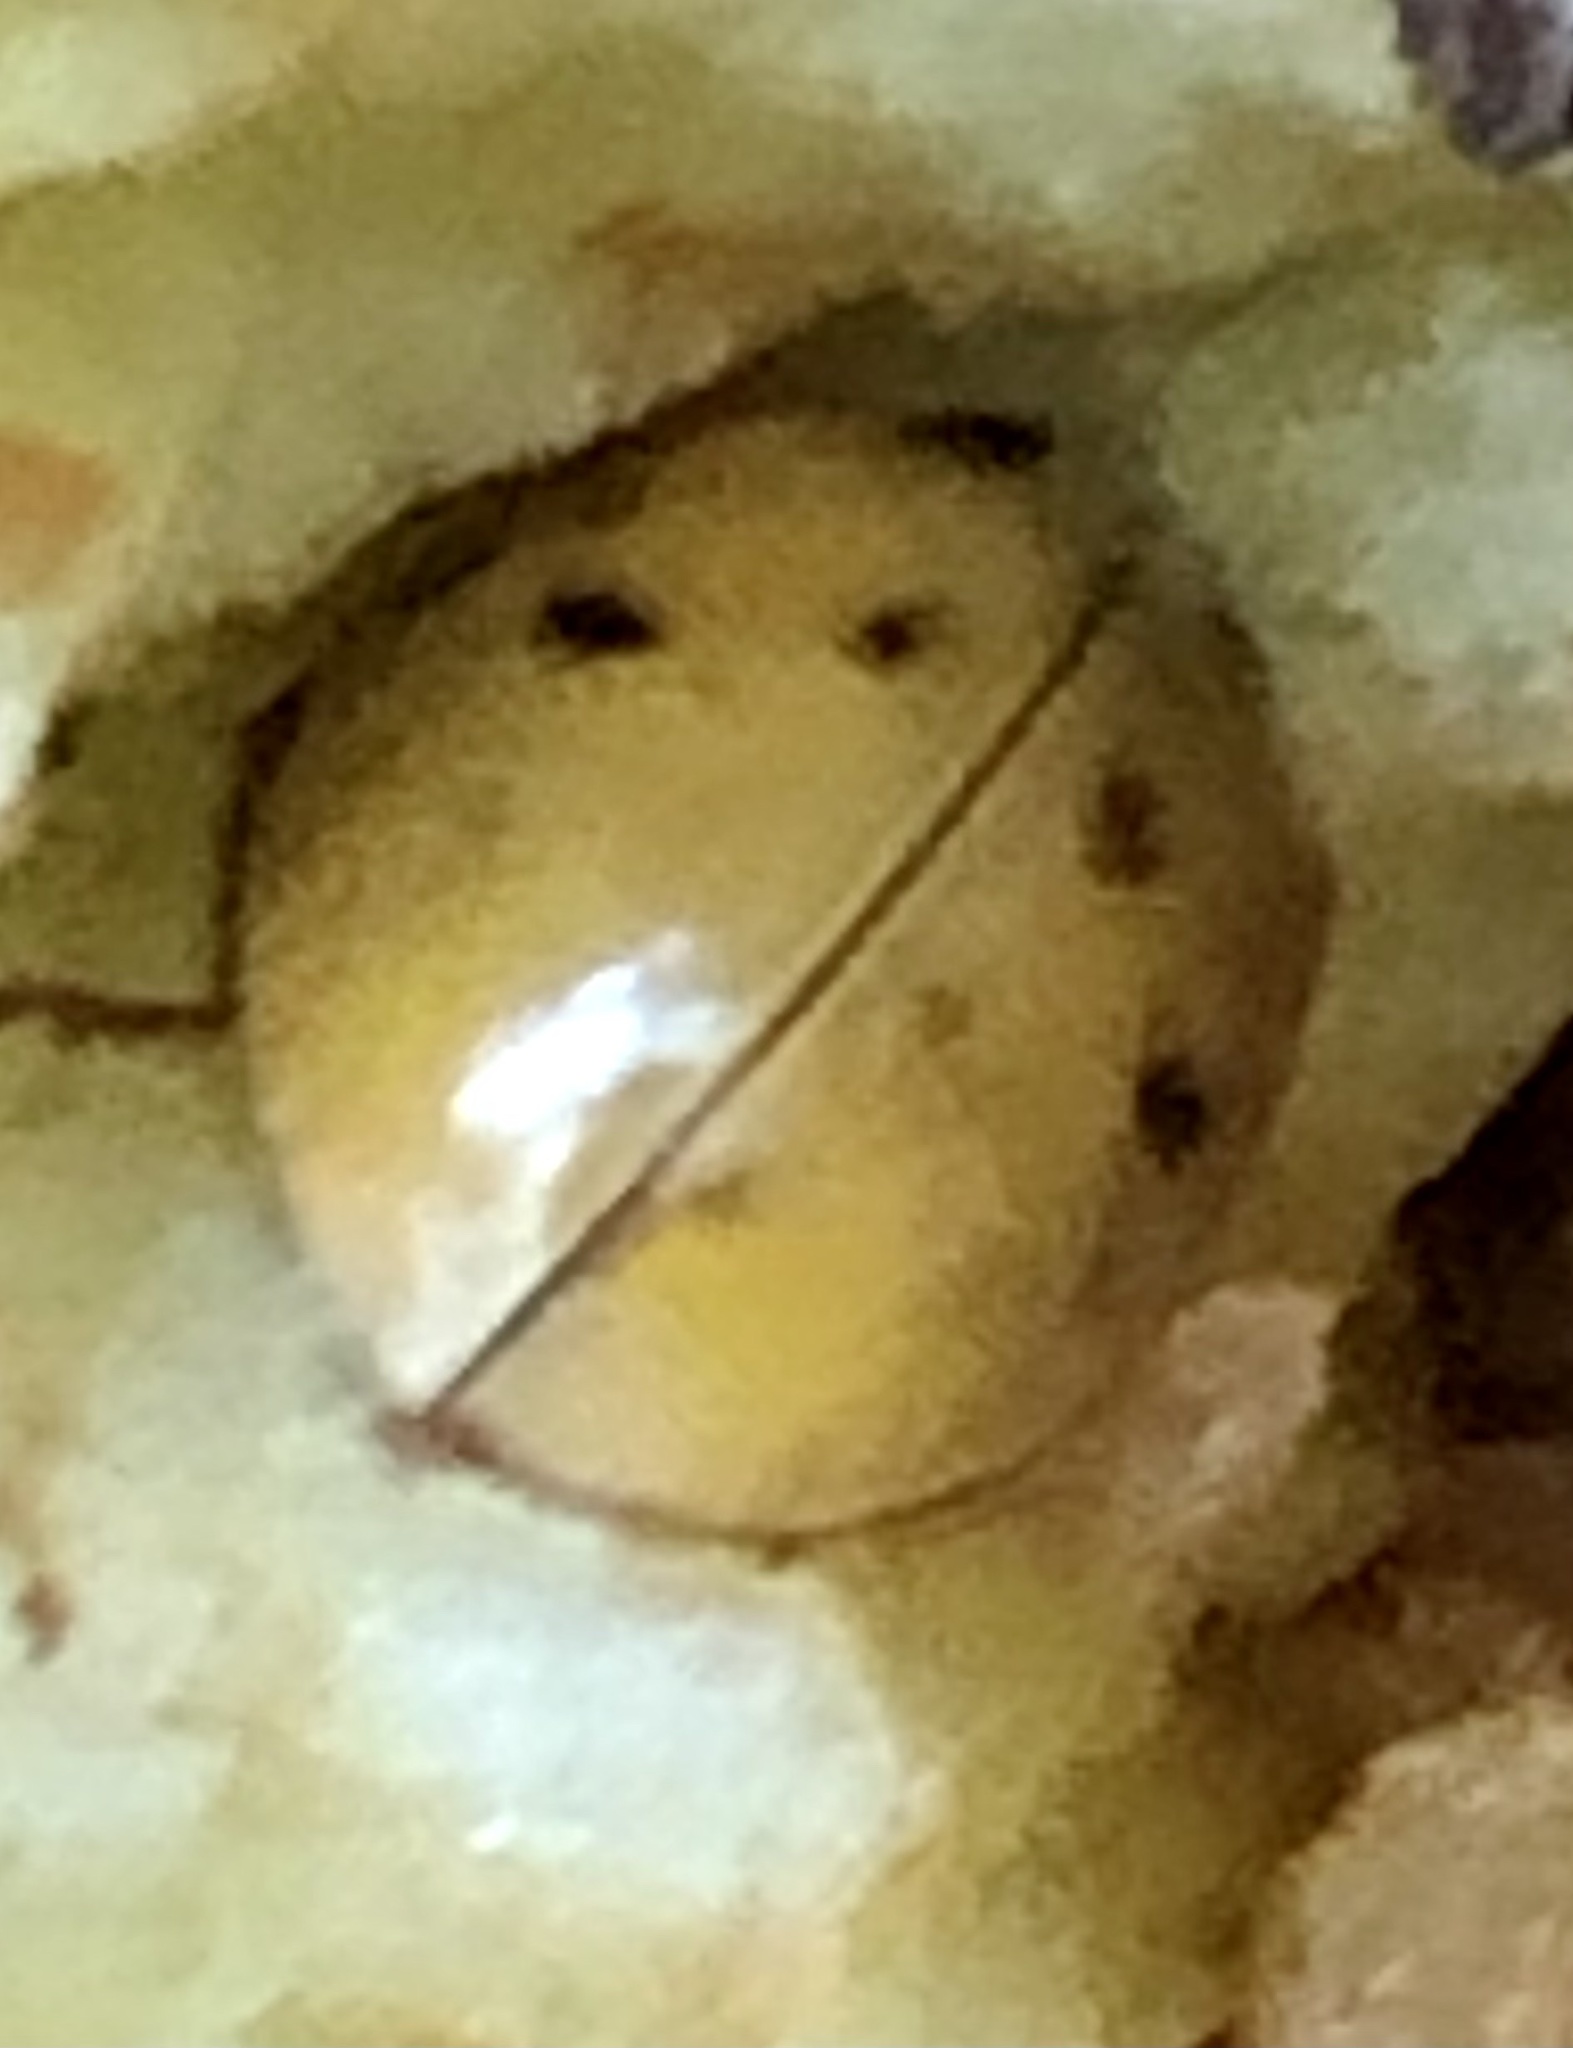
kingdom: Animalia
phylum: Arthropoda
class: Insecta
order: Coleoptera
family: Coccinellidae
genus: Harmonia
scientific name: Harmonia axyridis
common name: Harlequin ladybird
